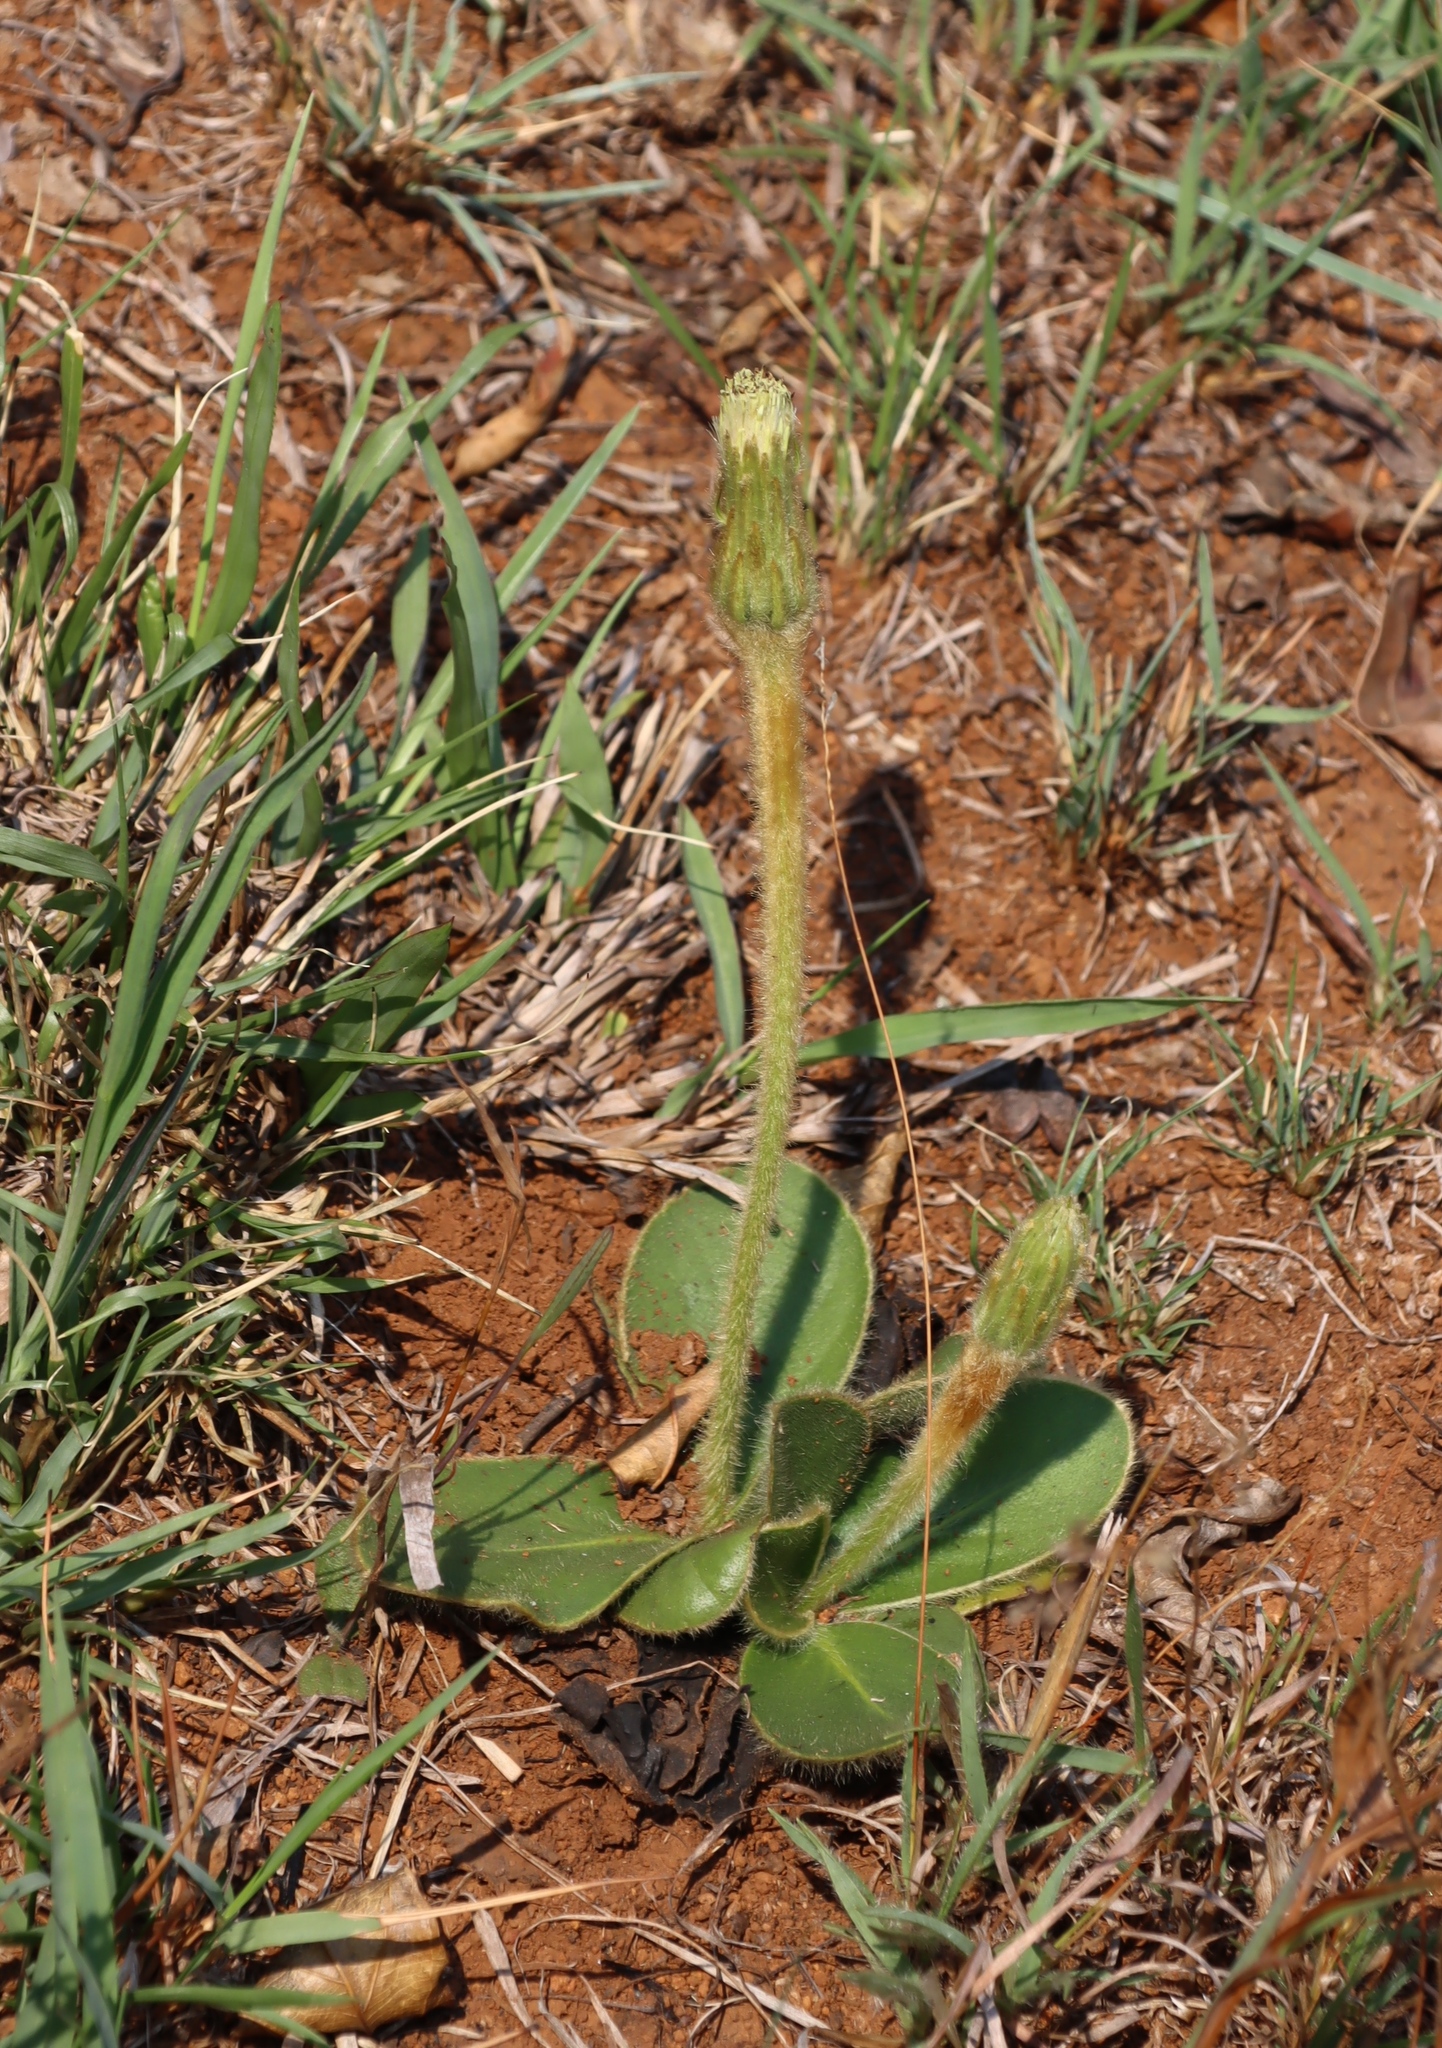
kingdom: Plantae
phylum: Tracheophyta
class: Magnoliopsida
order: Asterales
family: Asteraceae
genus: Piloselloides
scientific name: Piloselloides hirsuta
